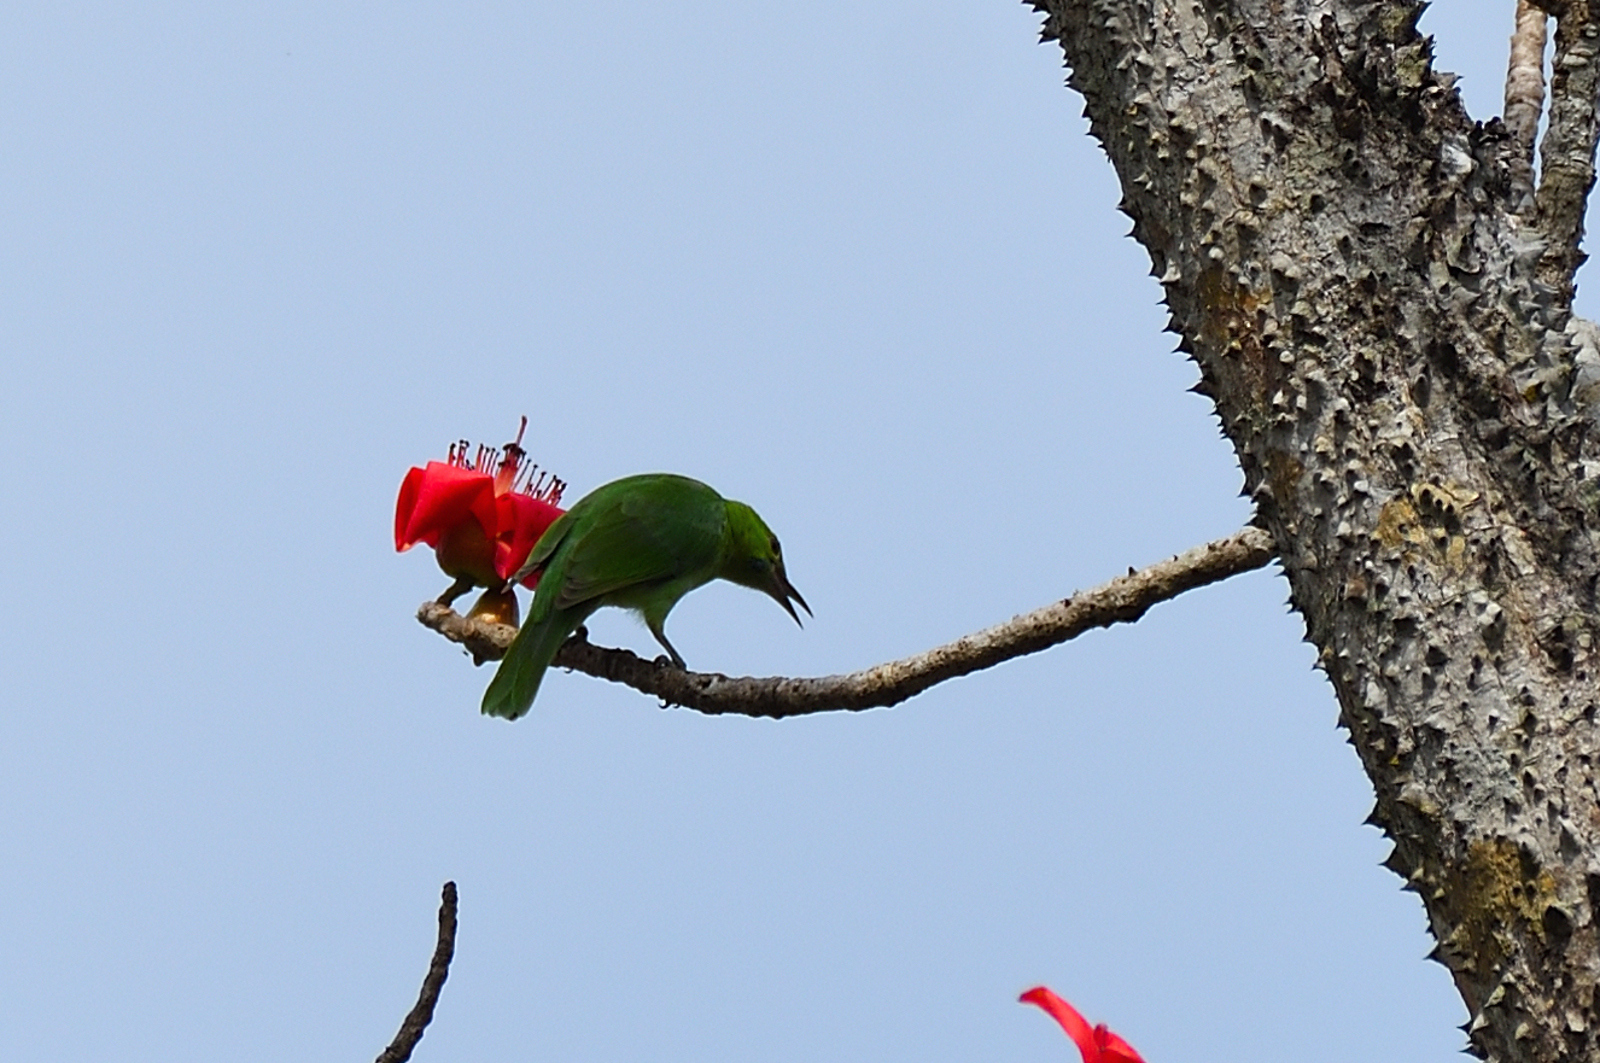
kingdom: Animalia
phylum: Chordata
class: Aves
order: Passeriformes
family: Chloropseidae
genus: Chloropsis
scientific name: Chloropsis jerdoni
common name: Jerdon's leafbird
